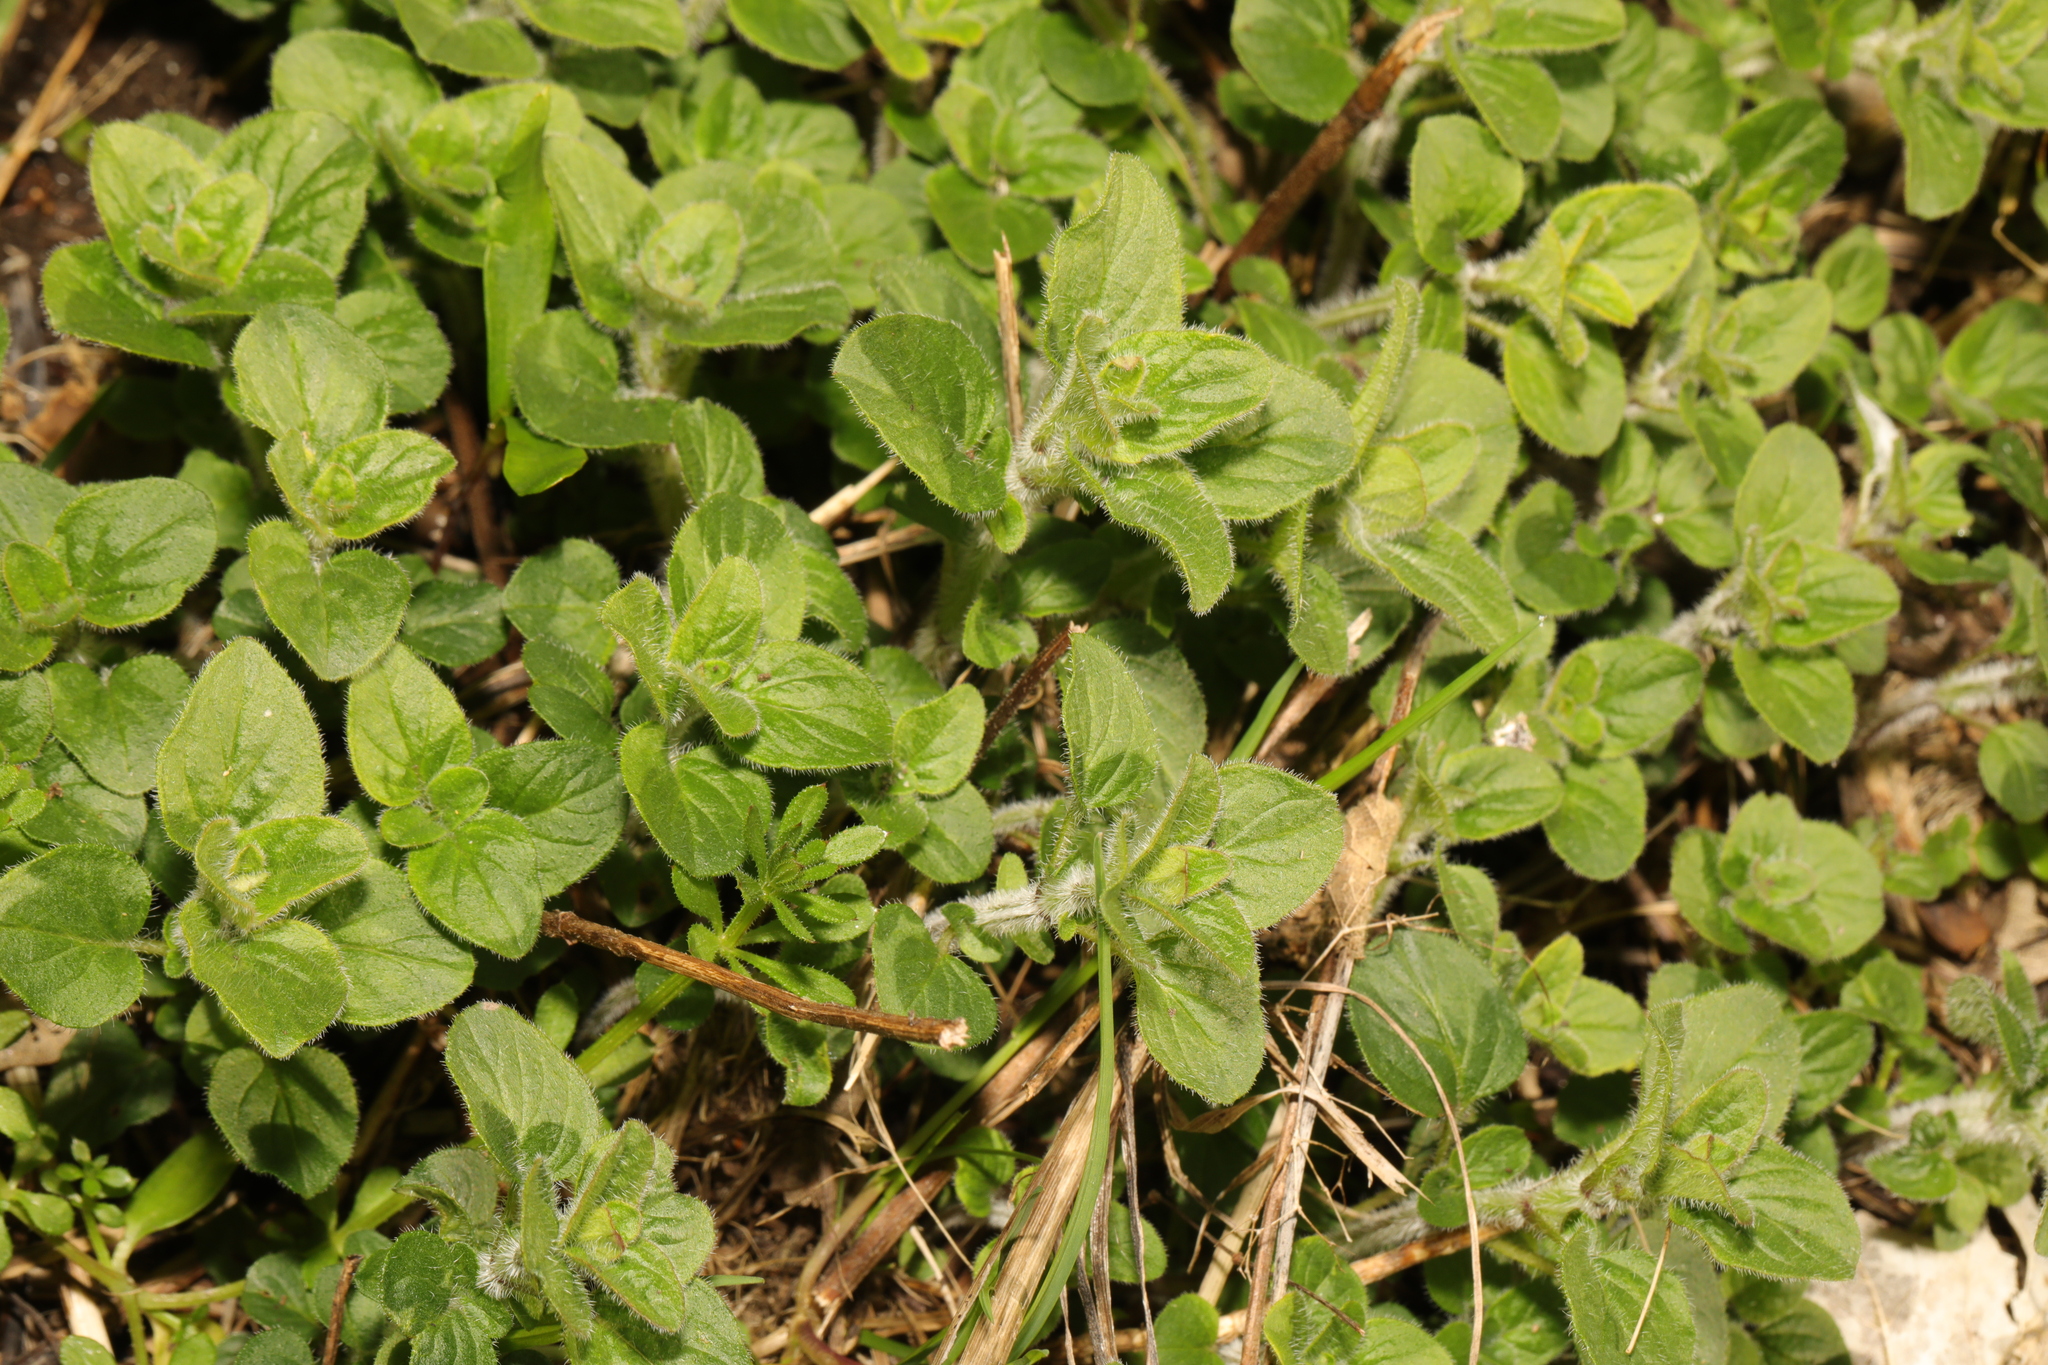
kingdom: Plantae
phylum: Tracheophyta
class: Magnoliopsida
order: Lamiales
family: Lamiaceae
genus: Origanum
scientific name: Origanum vulgare
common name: Wild marjoram
